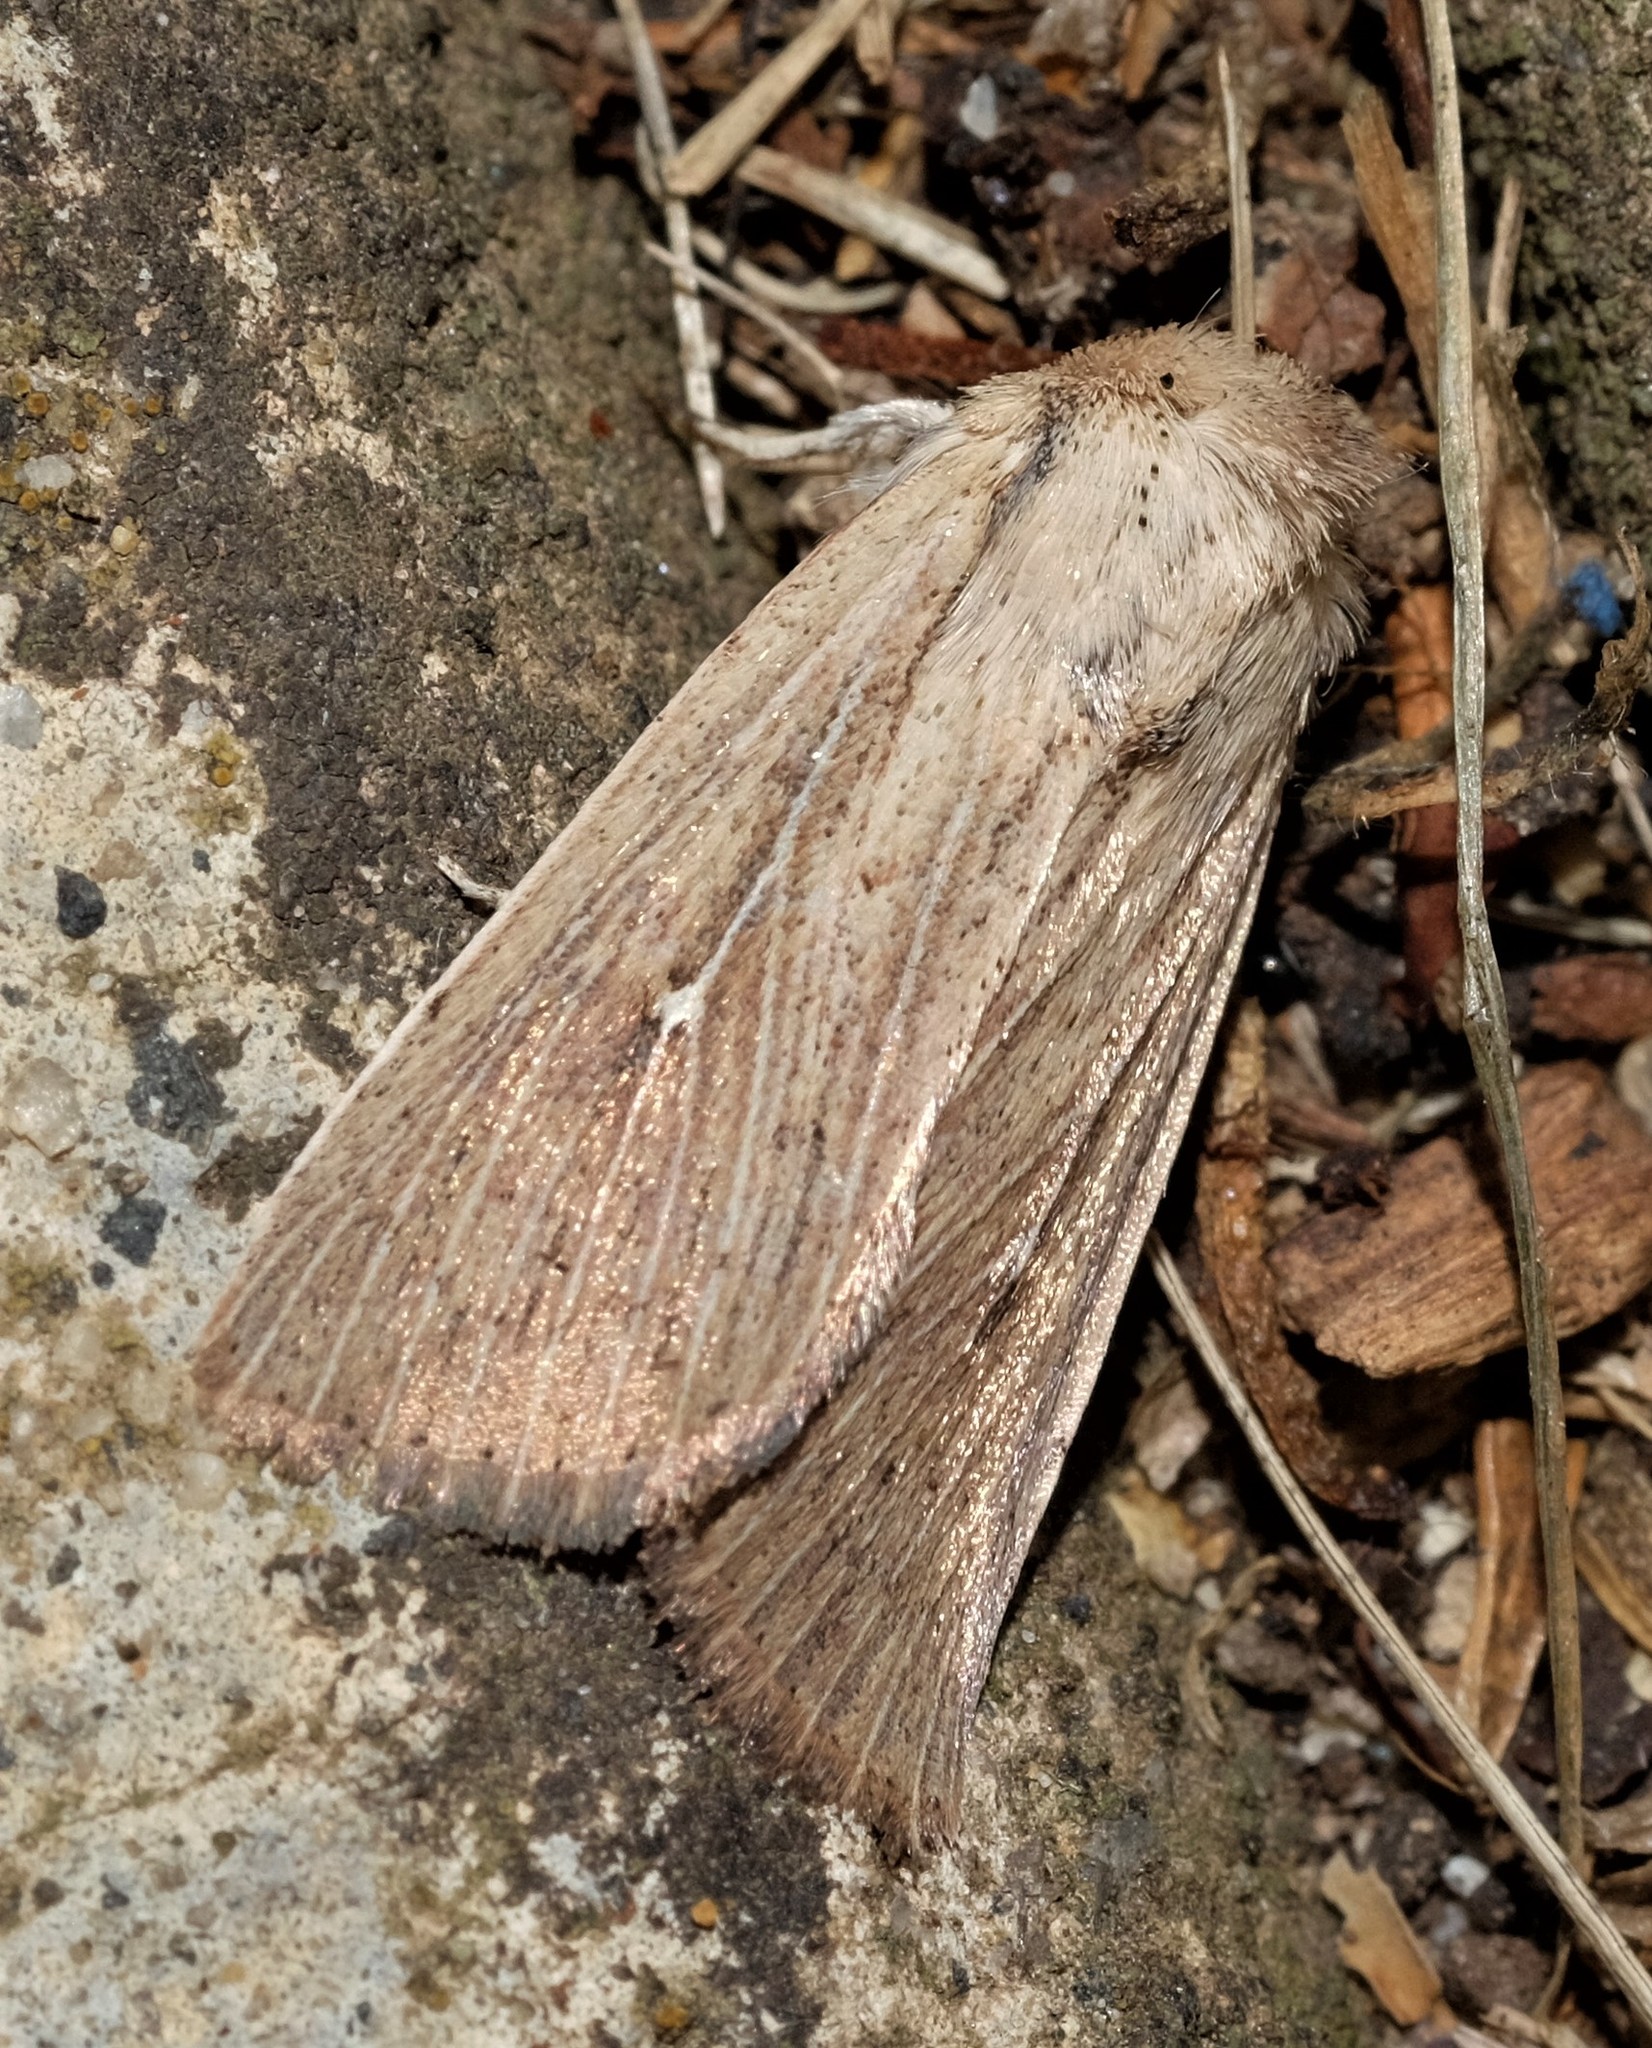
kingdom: Animalia
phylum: Arthropoda
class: Insecta
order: Lepidoptera
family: Noctuidae
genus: Leucania
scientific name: Leucania uda
